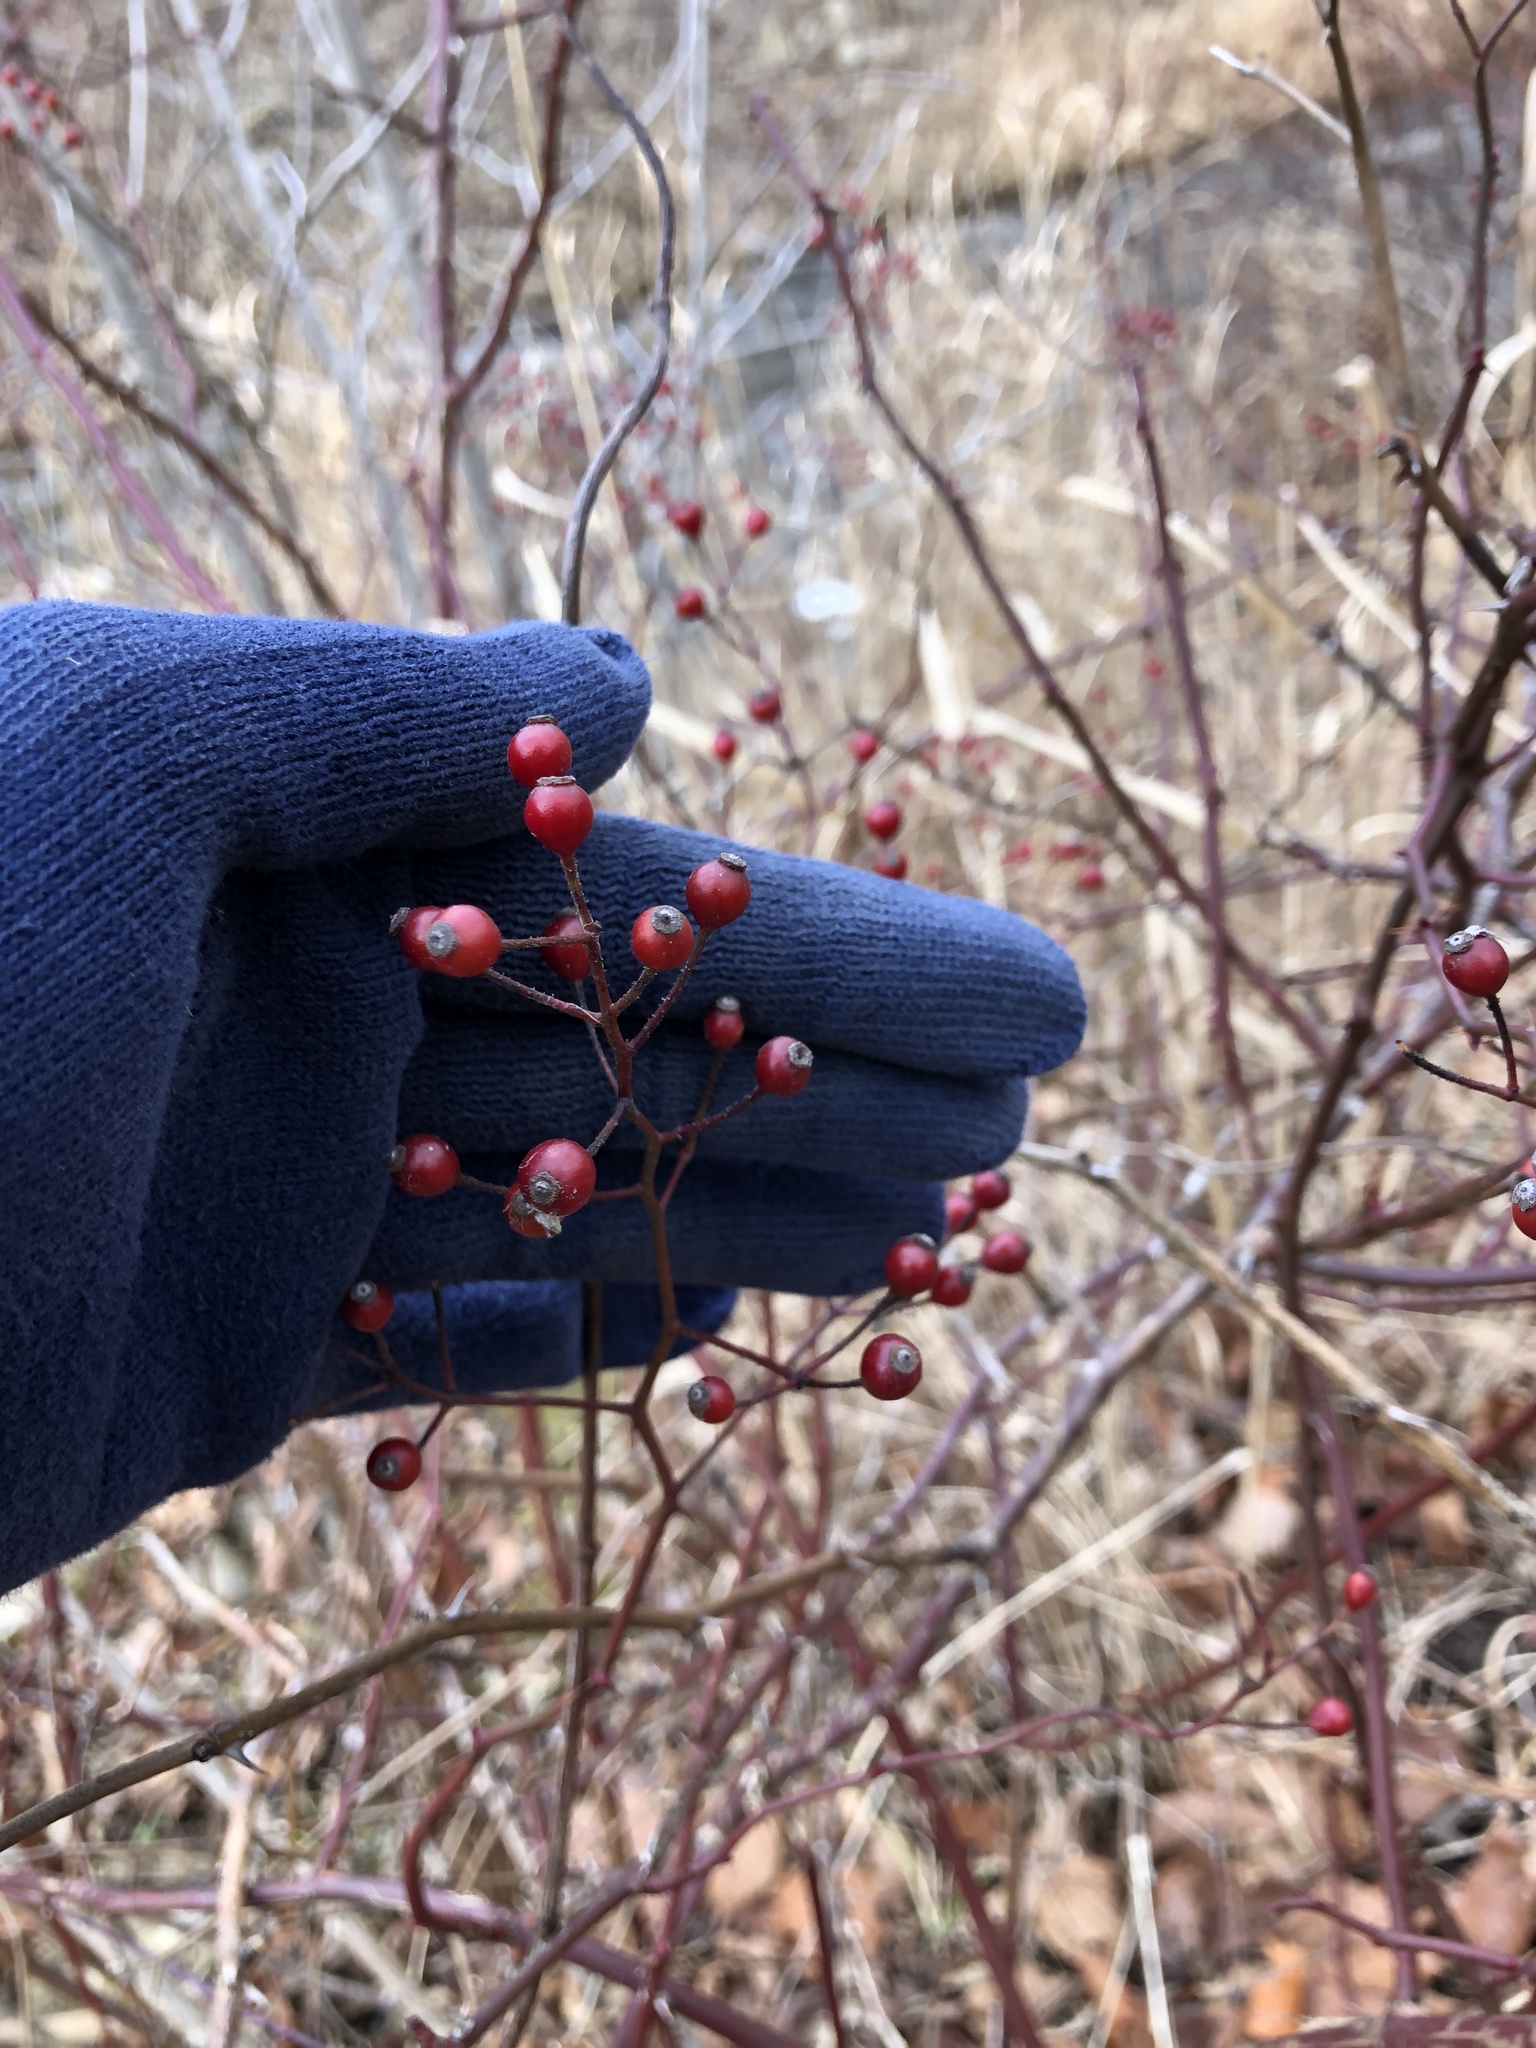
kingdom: Plantae
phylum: Tracheophyta
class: Magnoliopsida
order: Rosales
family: Rosaceae
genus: Rosa
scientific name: Rosa multiflora
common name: Multiflora rose
